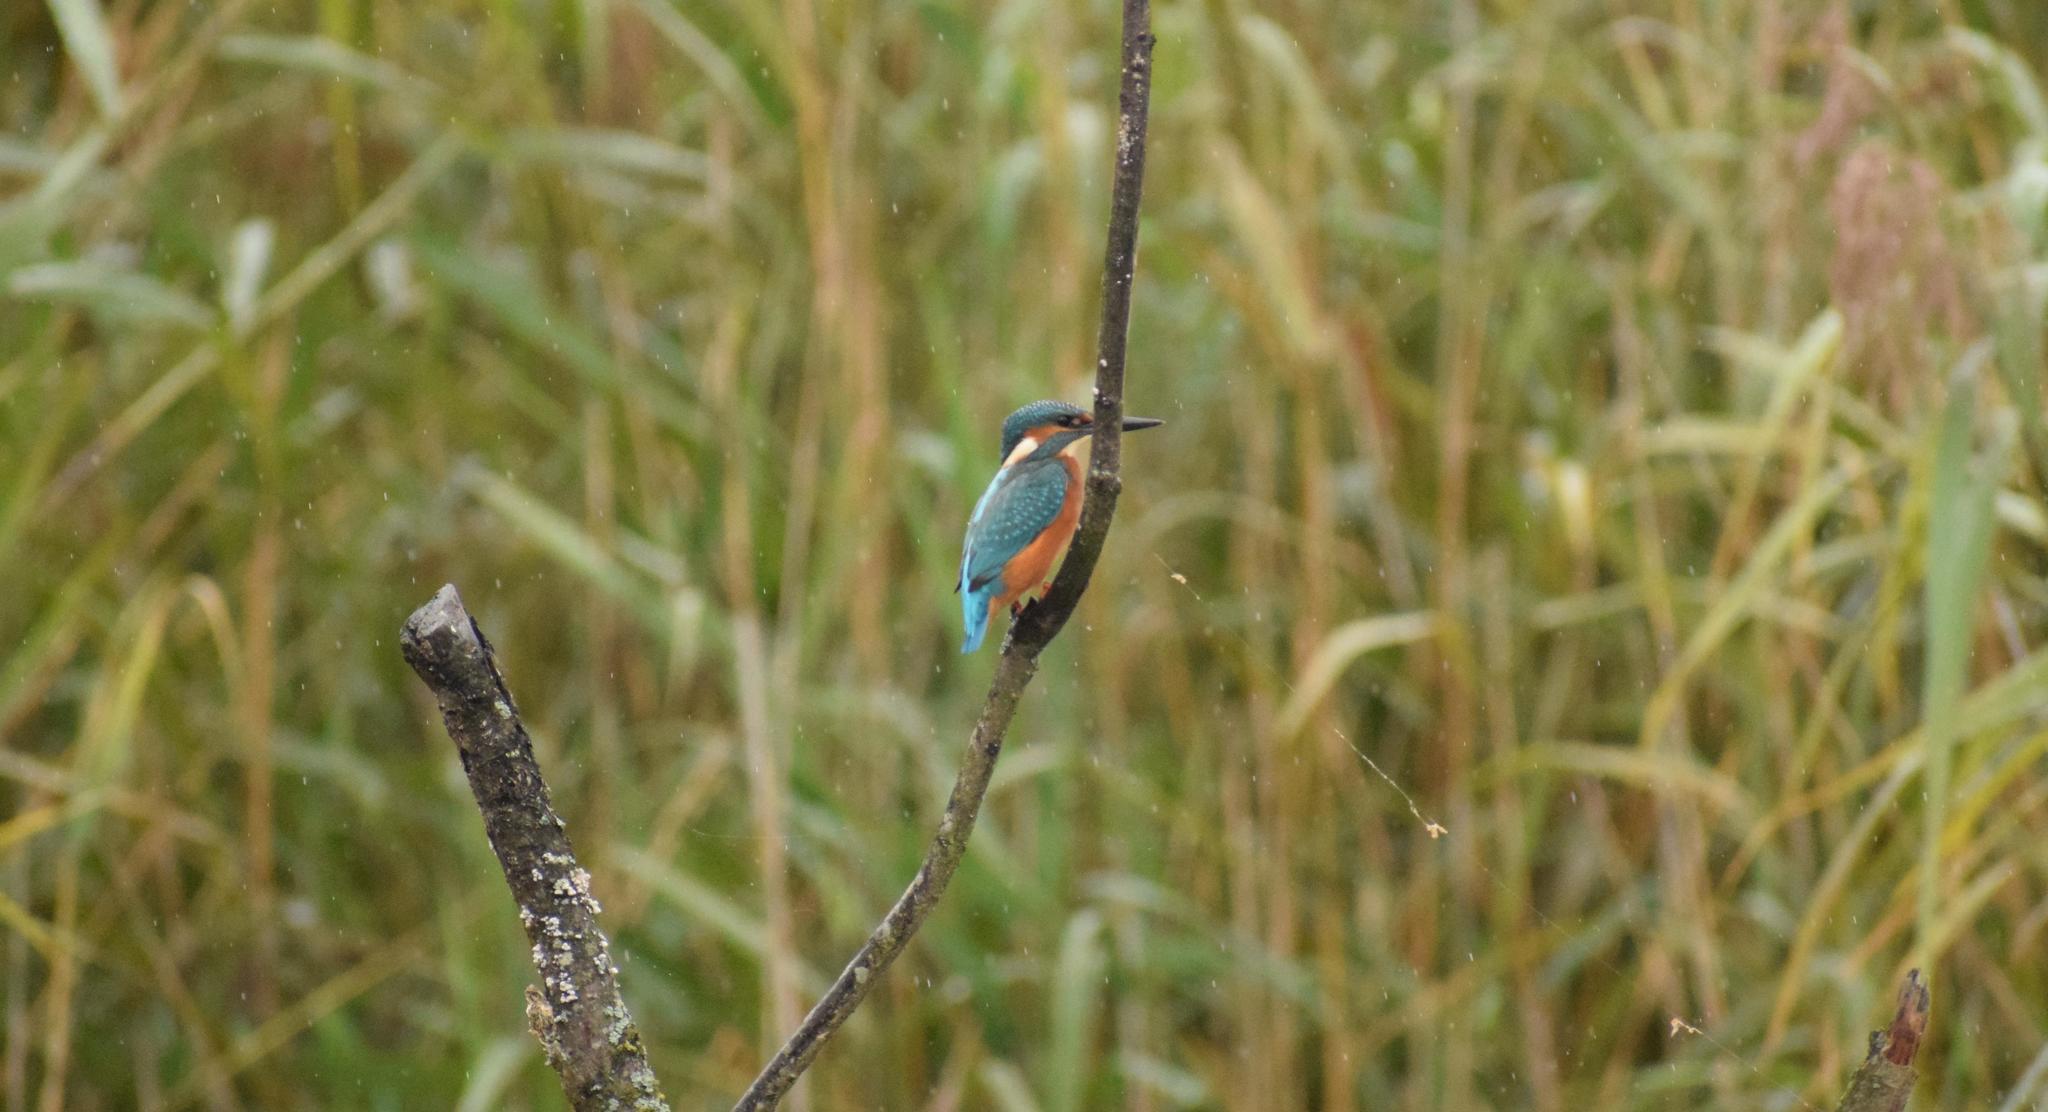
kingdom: Animalia
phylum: Chordata
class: Aves
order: Coraciiformes
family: Alcedinidae
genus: Alcedo
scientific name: Alcedo atthis
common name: Common kingfisher
